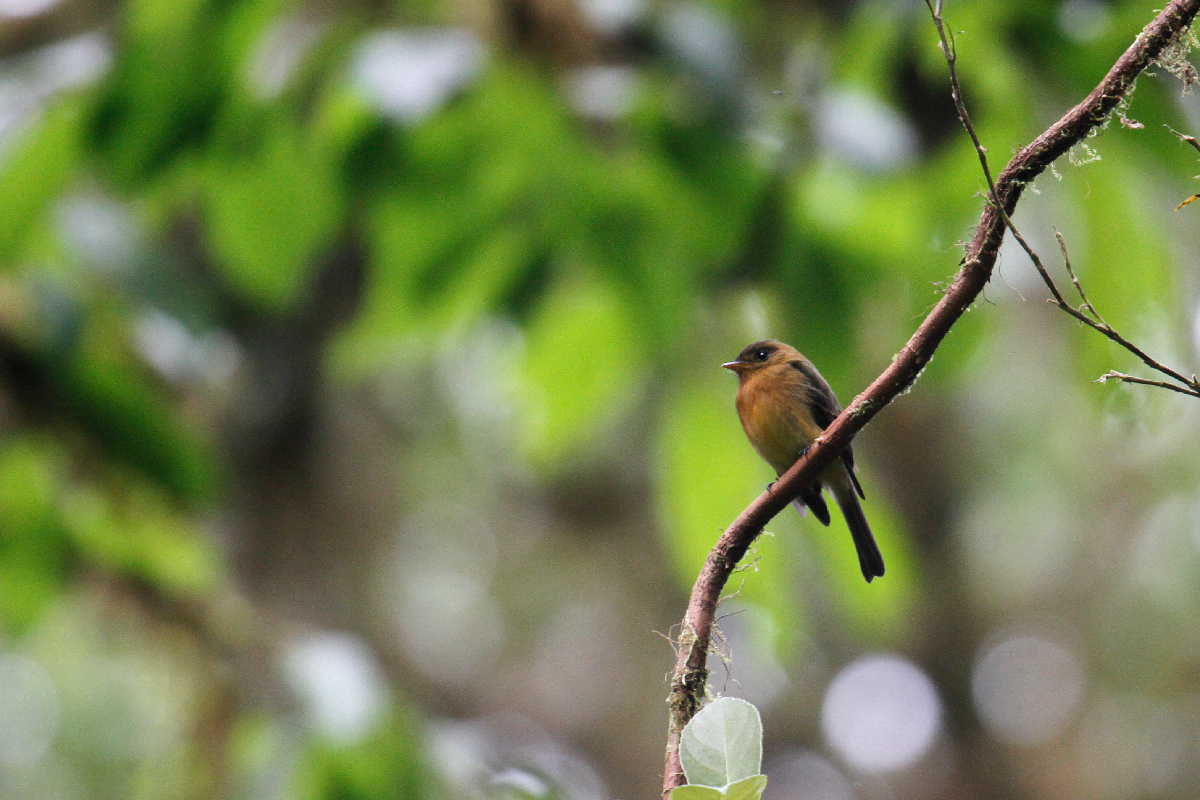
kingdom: Animalia
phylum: Chordata
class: Aves
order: Passeriformes
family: Tyrannidae
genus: Mitrephanes
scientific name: Mitrephanes phaeocercus
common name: Northern tufted flycatcher
